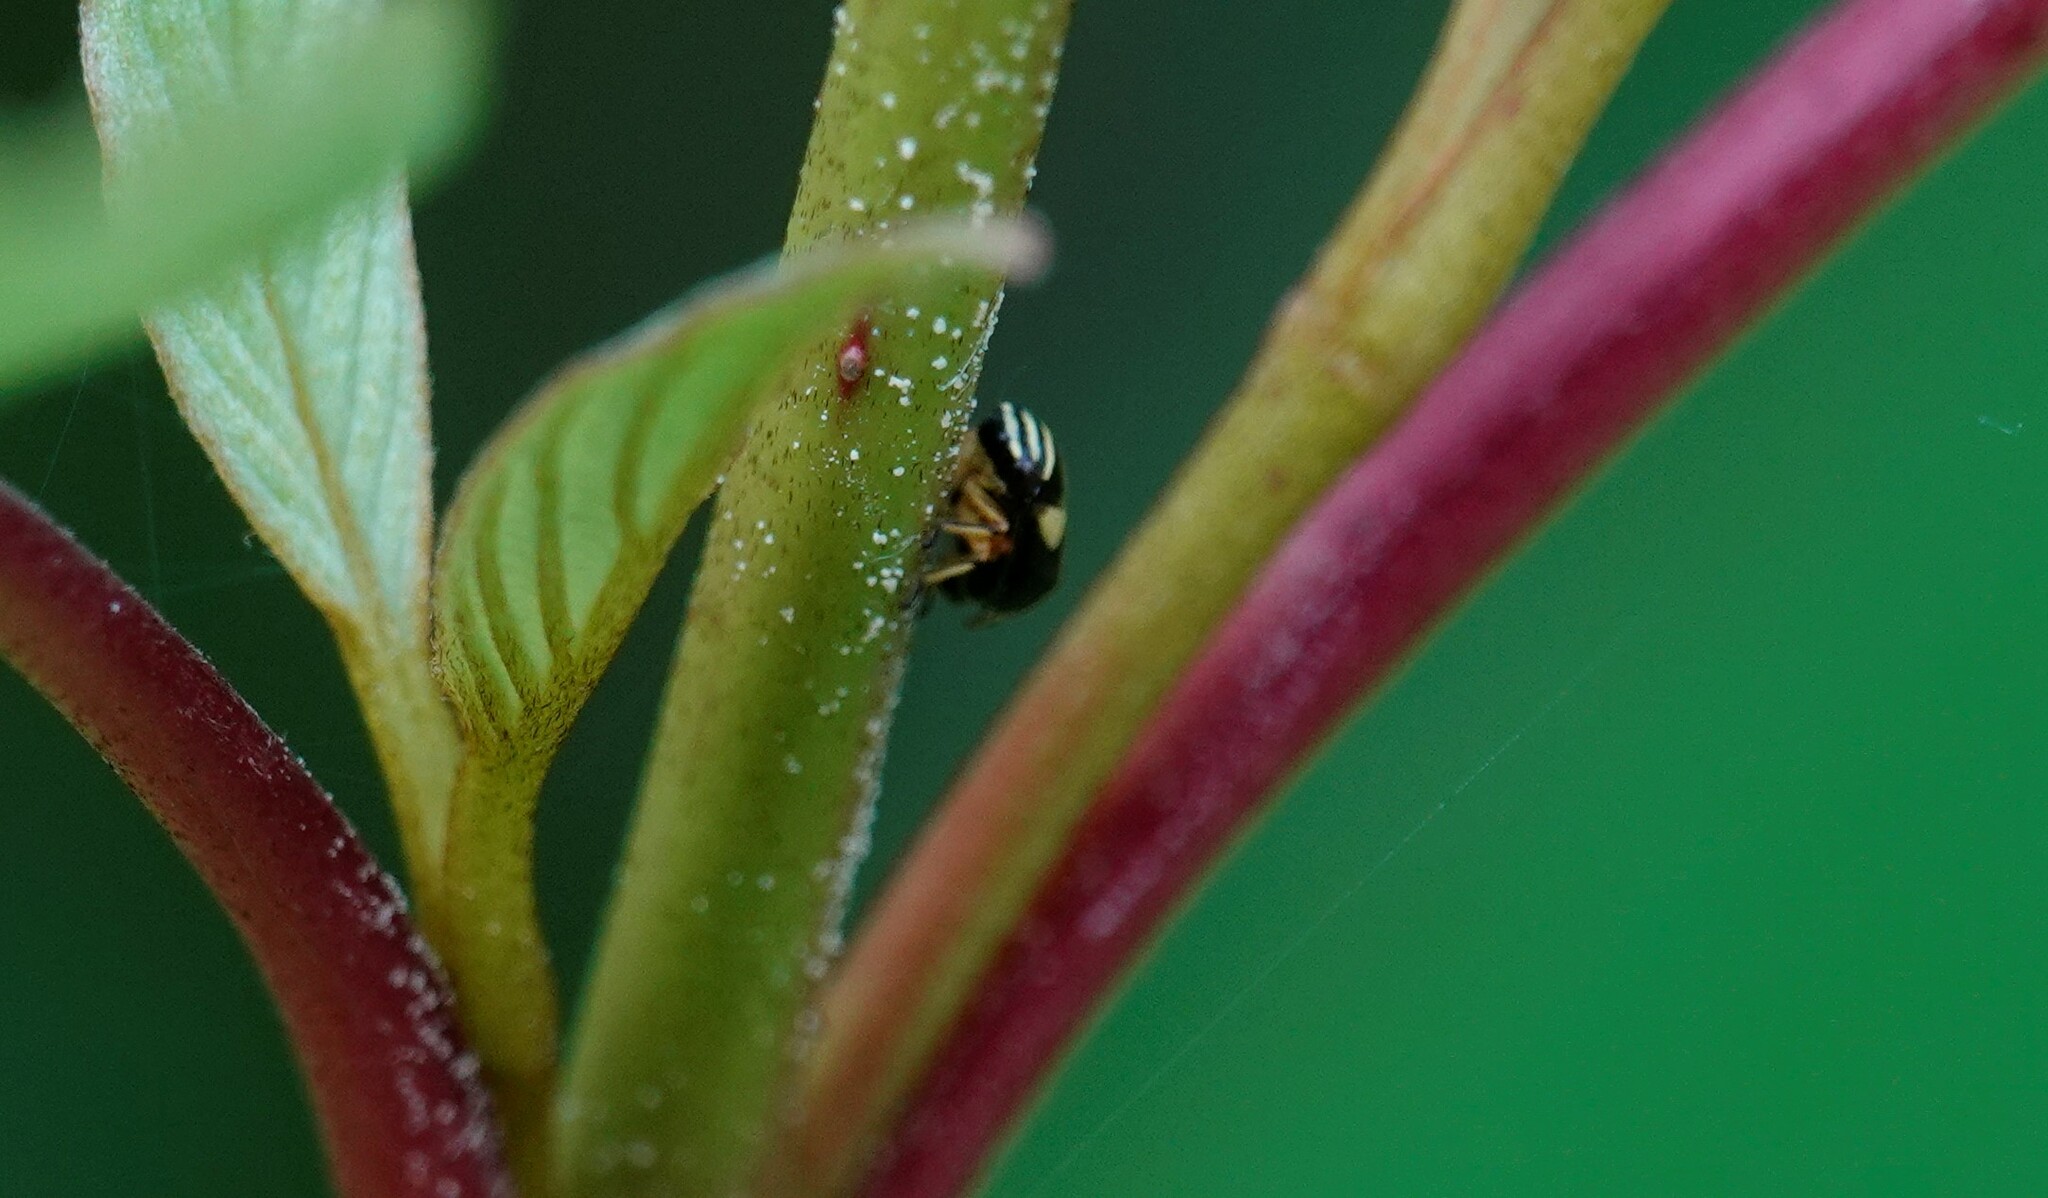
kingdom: Animalia
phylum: Arthropoda
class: Insecta
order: Hemiptera
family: Clastopteridae
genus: Clastoptera
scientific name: Clastoptera proteus
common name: Dogwood spittlebug
